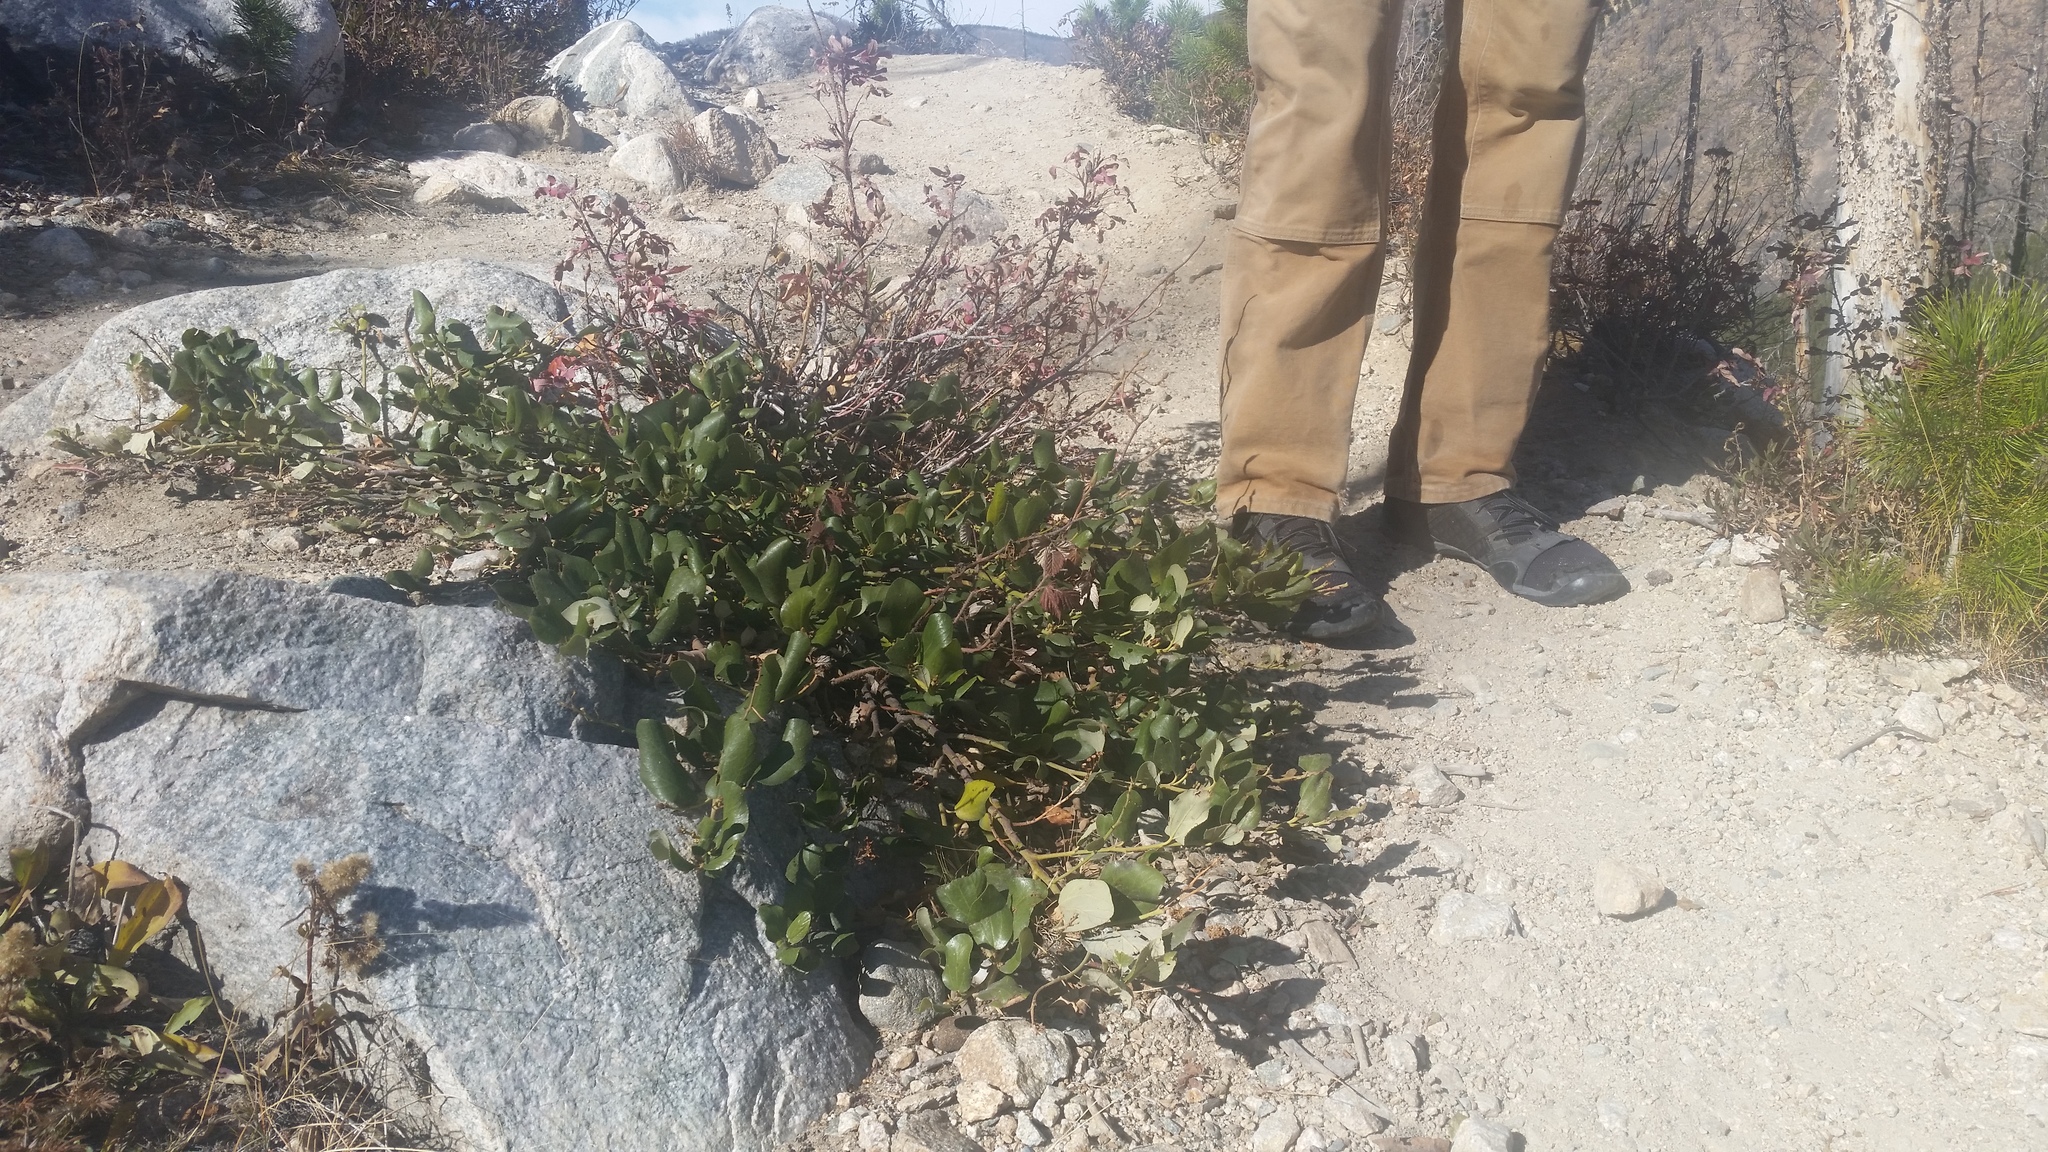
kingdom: Plantae
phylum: Tracheophyta
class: Magnoliopsida
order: Rosales
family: Rhamnaceae
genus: Ceanothus
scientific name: Ceanothus velutinus
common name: Snowbrush
